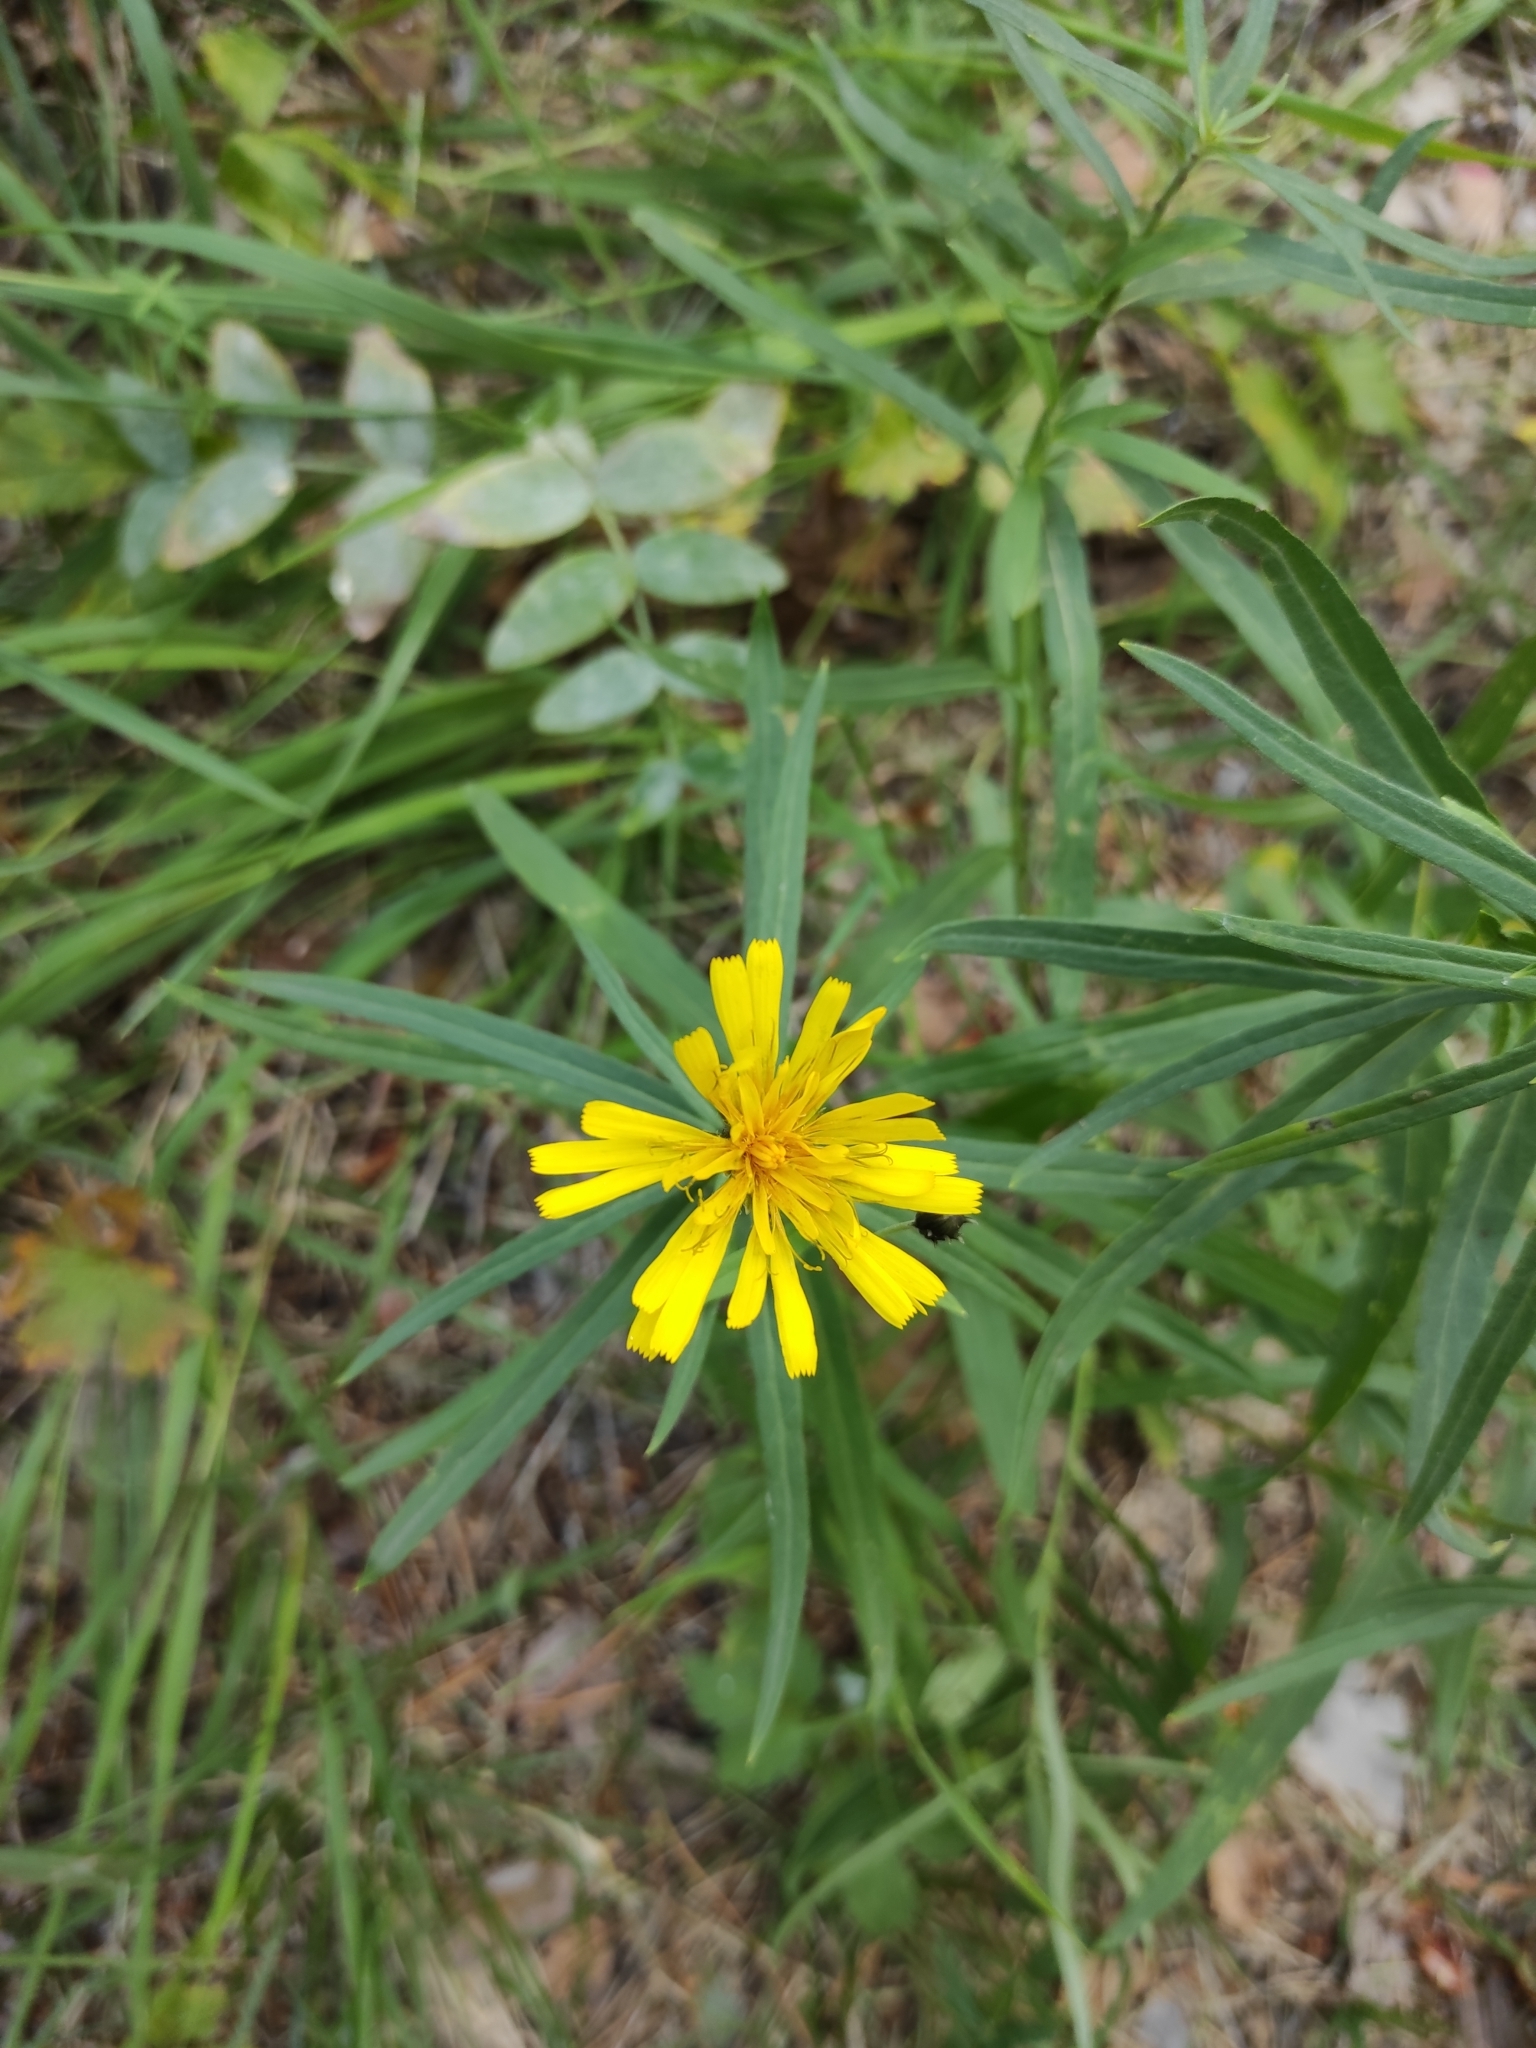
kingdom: Plantae
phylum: Tracheophyta
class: Magnoliopsida
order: Asterales
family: Asteraceae
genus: Hieracium
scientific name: Hieracium umbellatum
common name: Northern hawkweed
